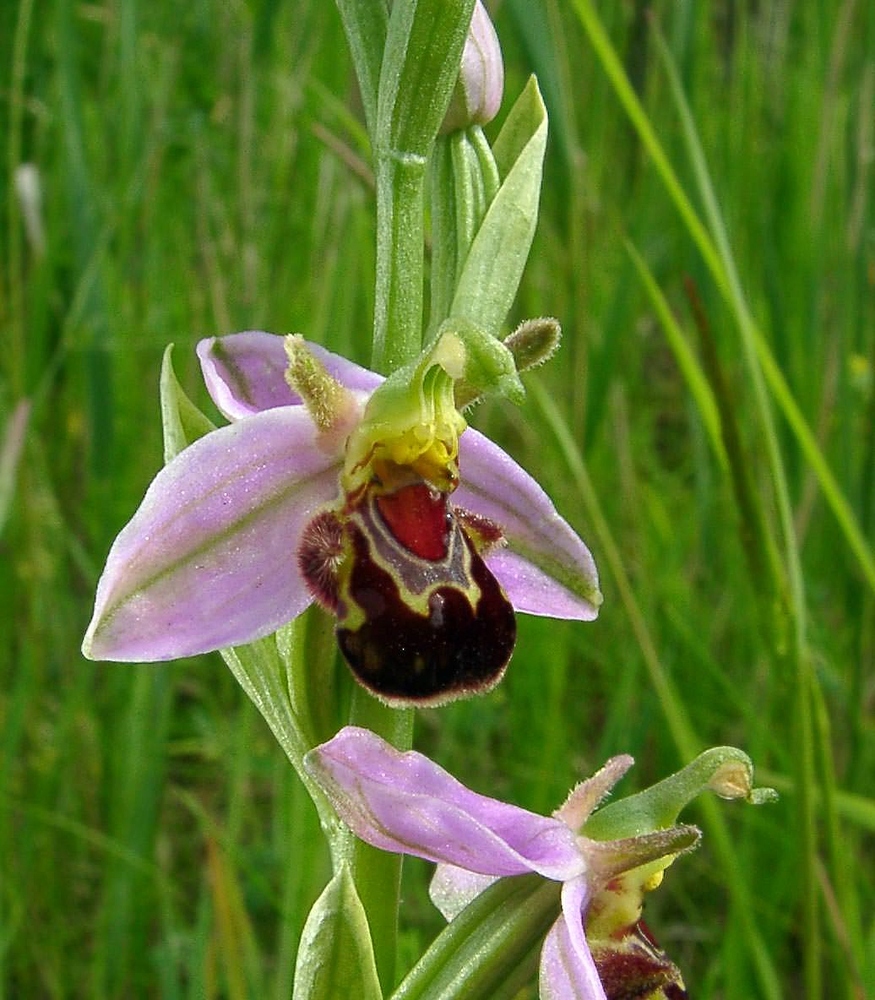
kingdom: Plantae
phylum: Tracheophyta
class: Liliopsida
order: Asparagales
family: Orchidaceae
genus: Ophrys
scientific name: Ophrys apifera
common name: Bee orchid
